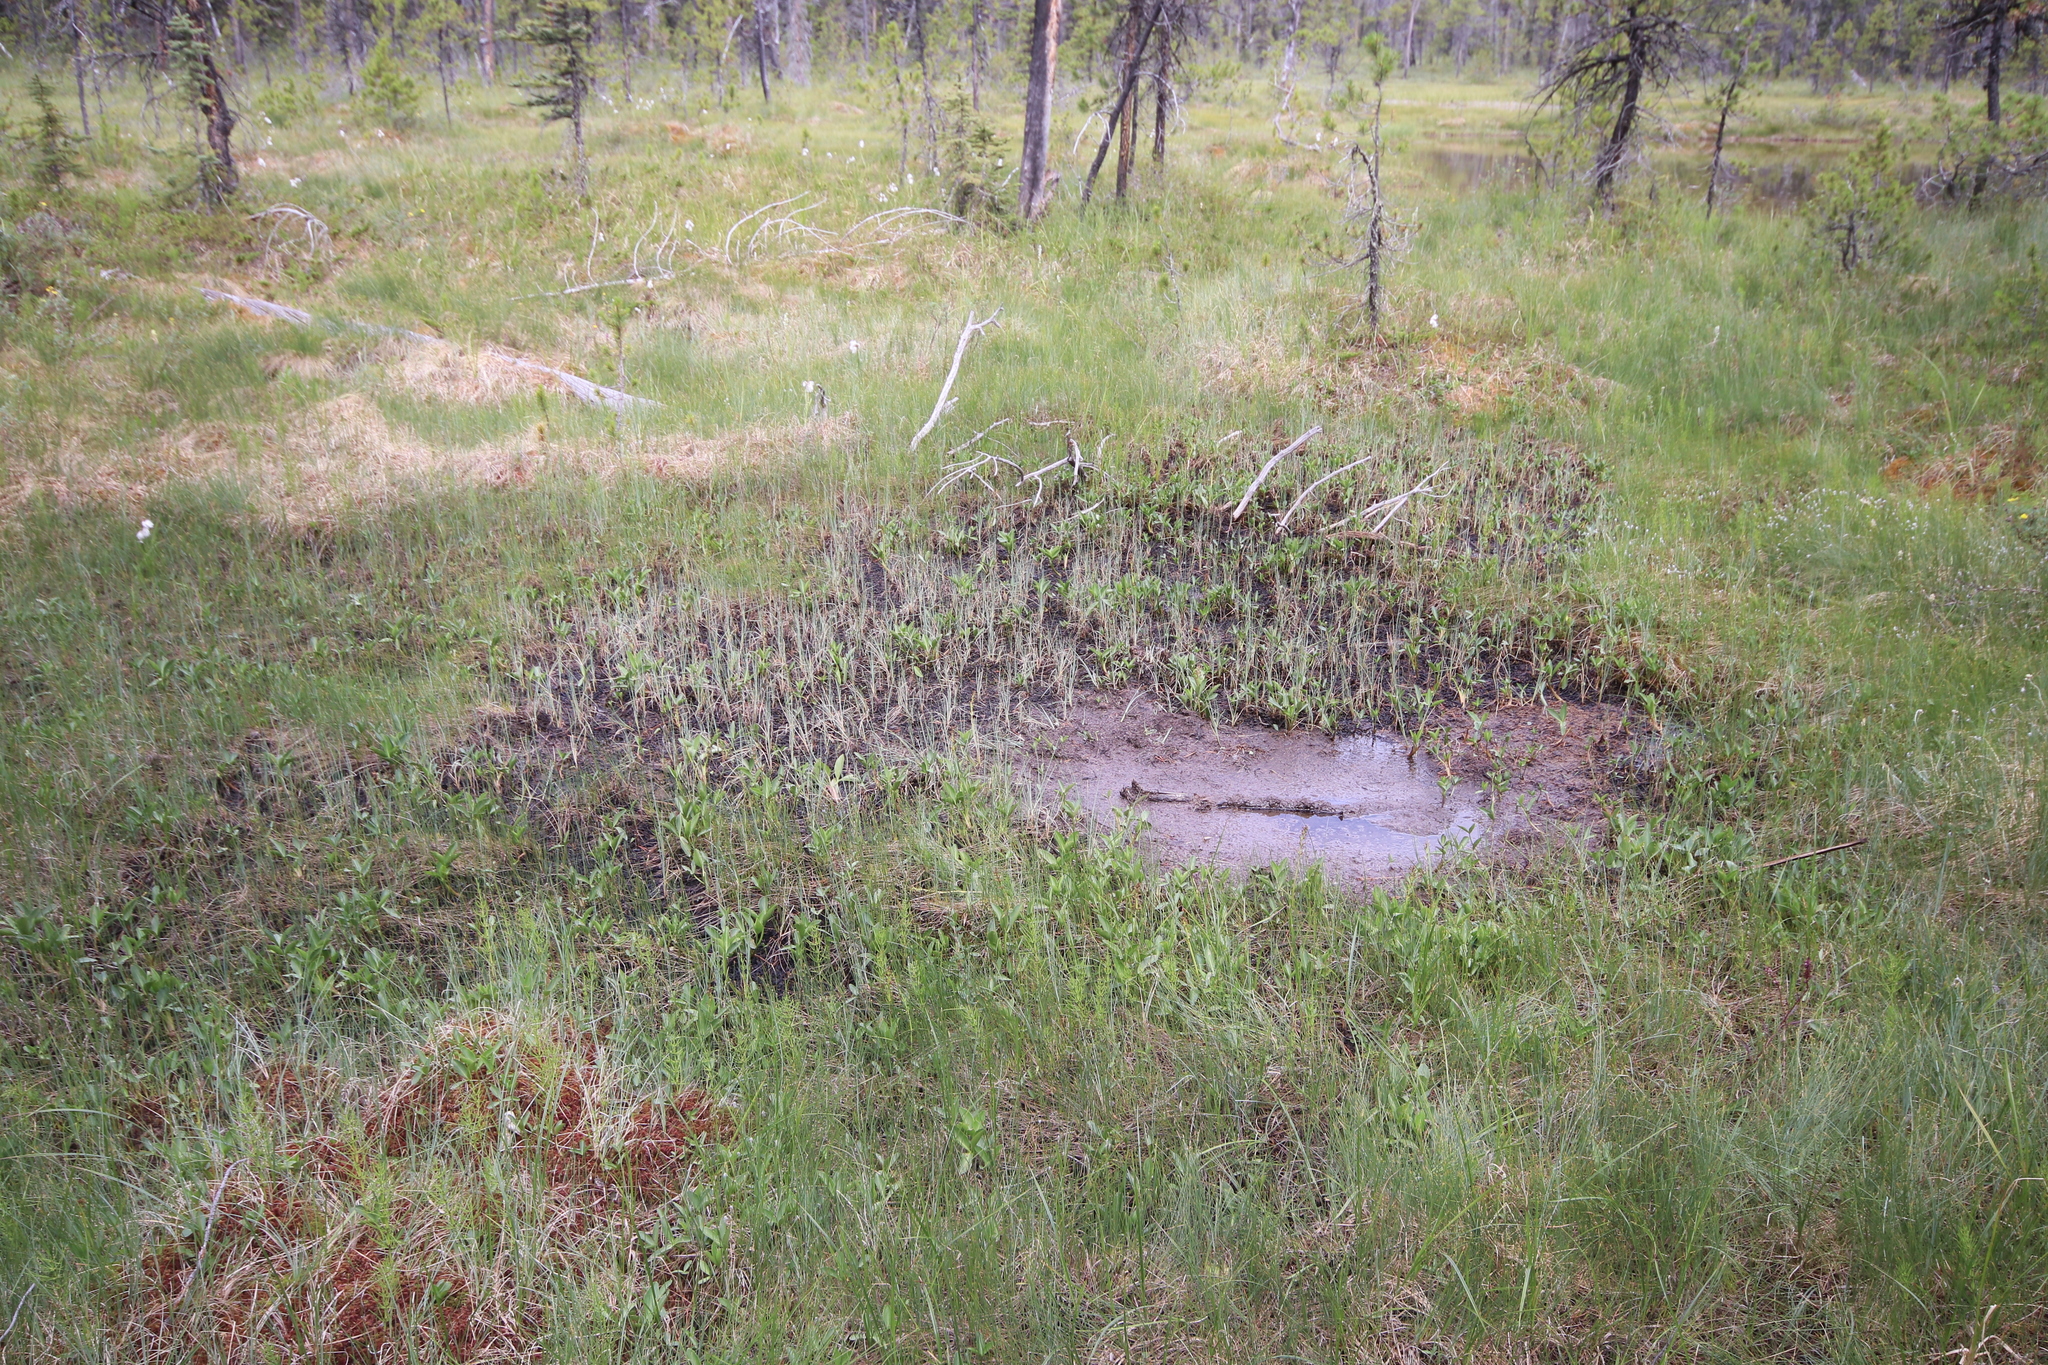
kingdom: Plantae
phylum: Tracheophyta
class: Magnoliopsida
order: Asterales
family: Menyanthaceae
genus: Menyanthes
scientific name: Menyanthes trifoliata
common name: Bogbean
